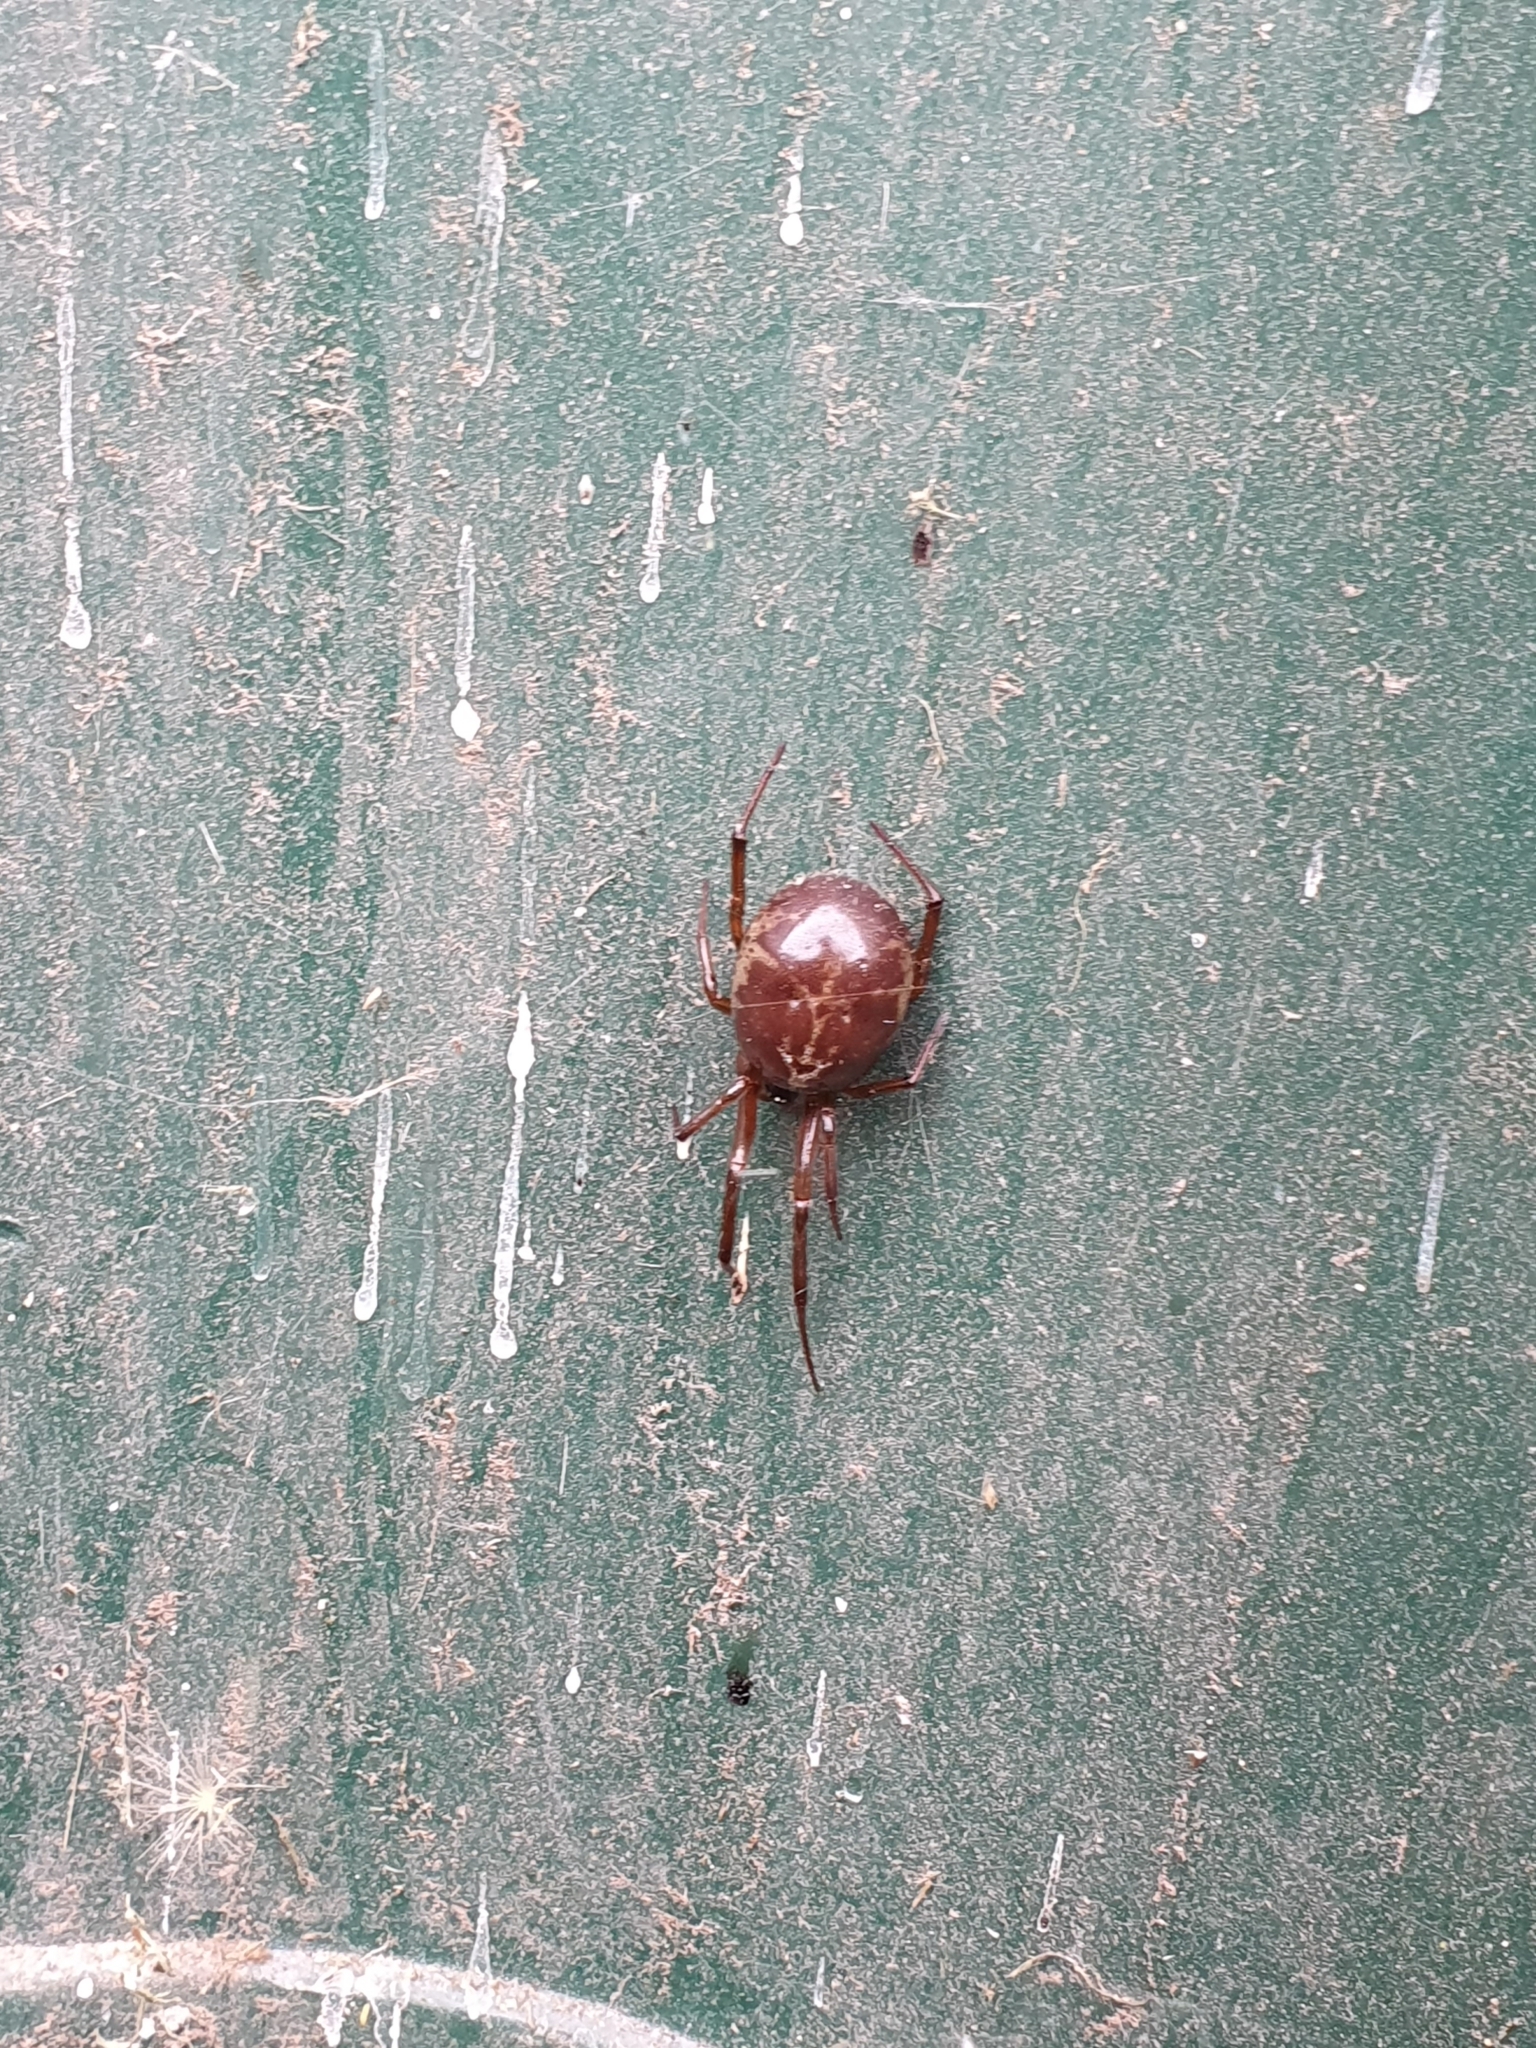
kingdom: Animalia
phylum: Arthropoda
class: Arachnida
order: Araneae
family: Theridiidae
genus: Steatoda
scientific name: Steatoda nobilis
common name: Cobweb weaver
